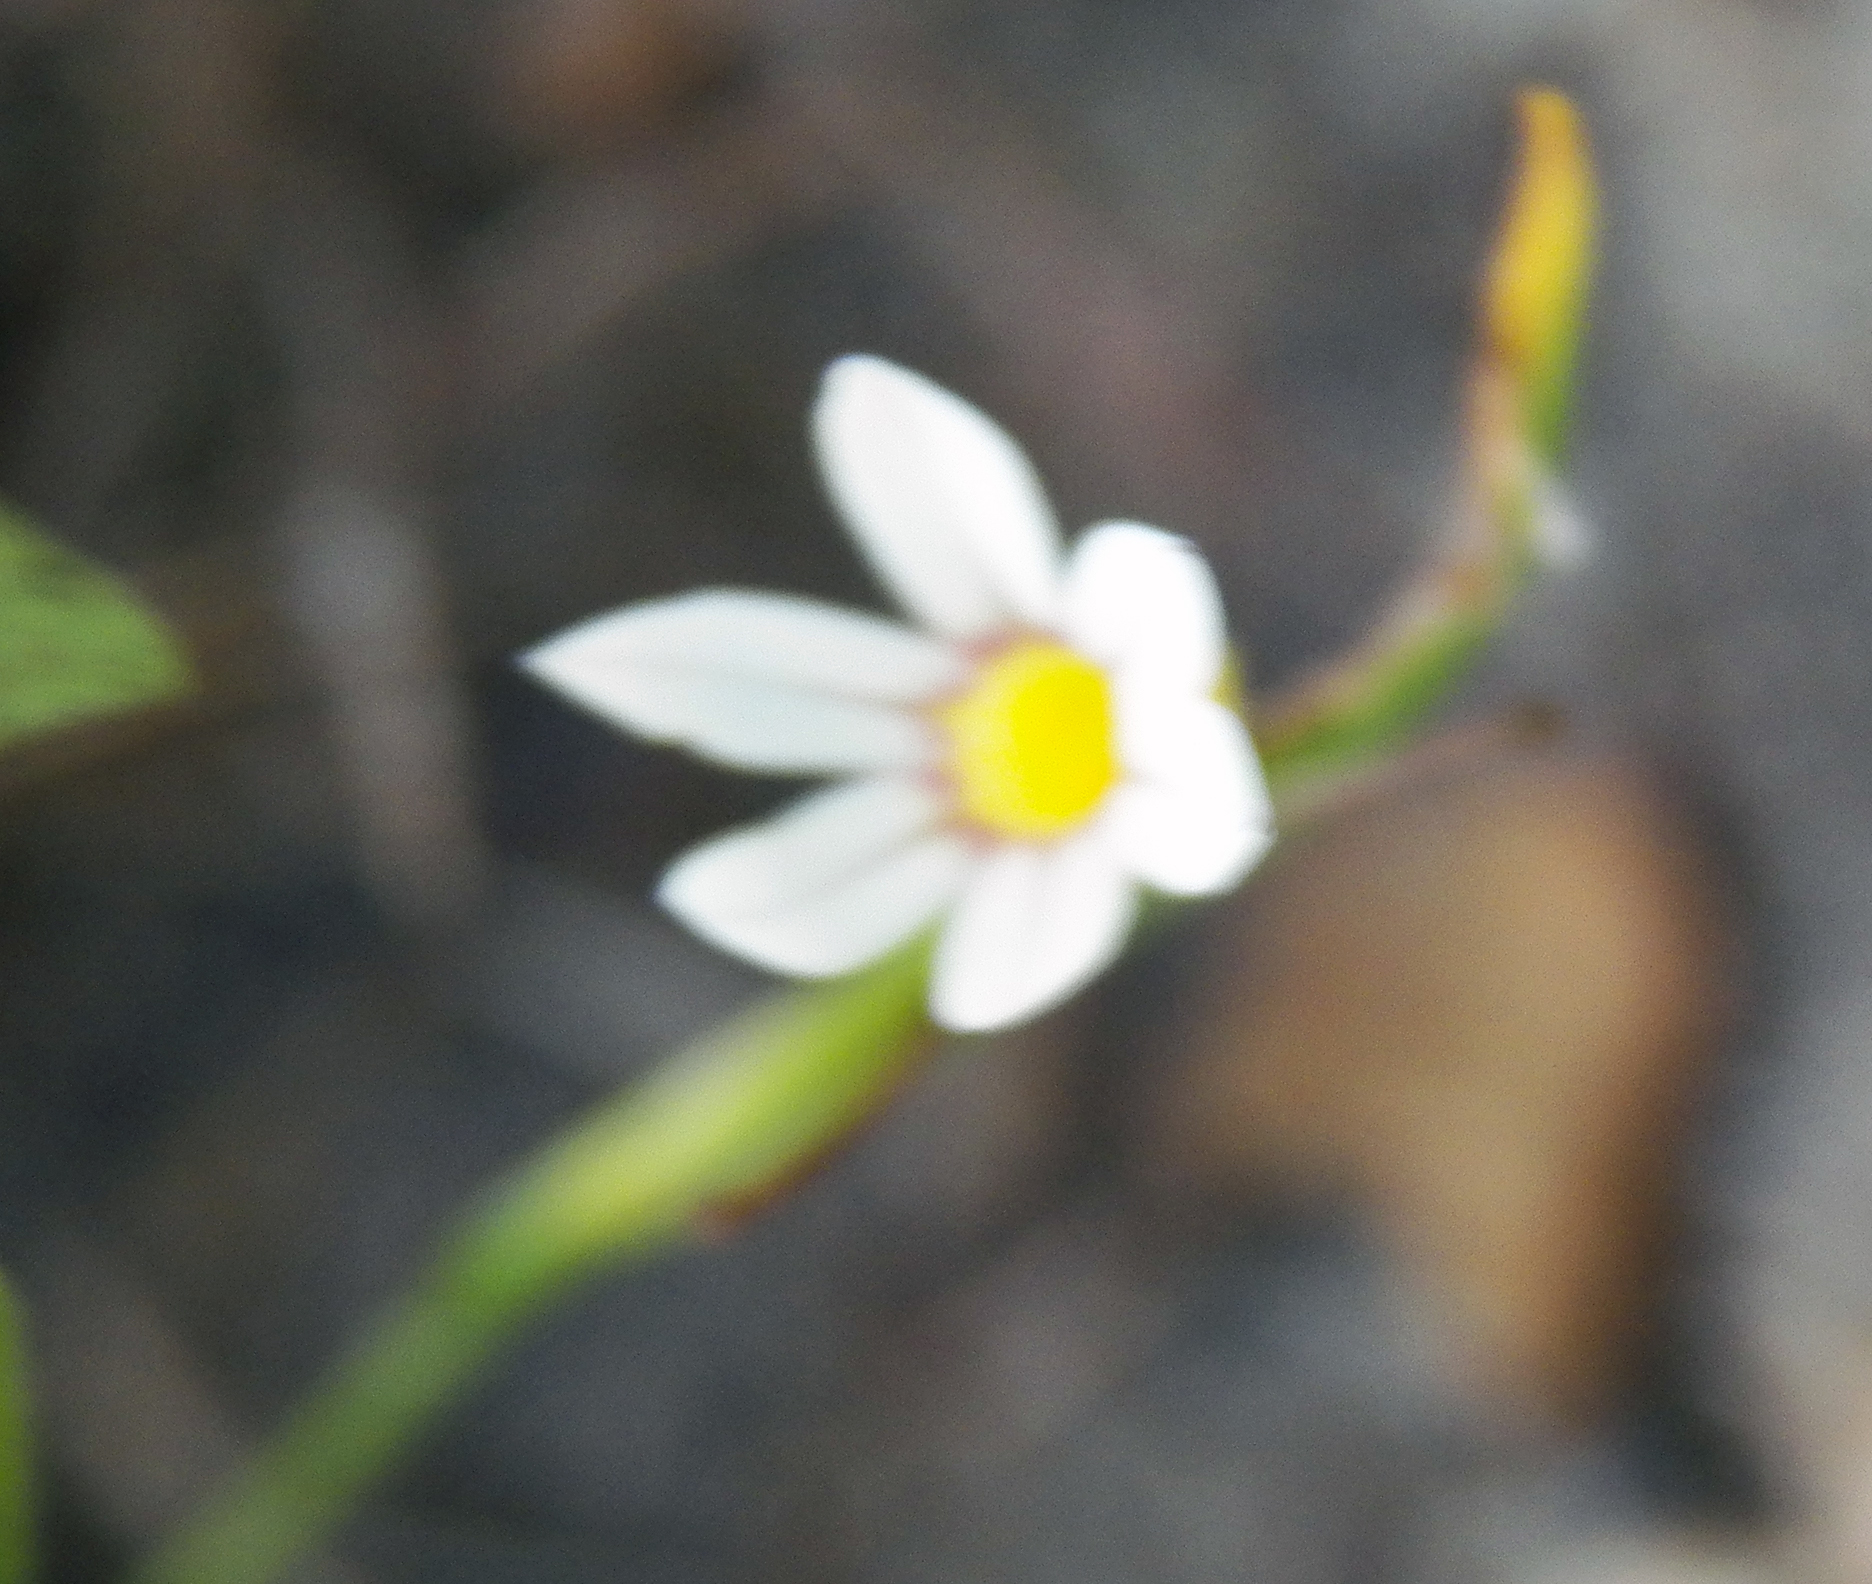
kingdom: Plantae
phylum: Tracheophyta
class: Liliopsida
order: Asparagales
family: Iridaceae
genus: Sisyrinchium
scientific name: Sisyrinchium micranthum
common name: Bermuda pigroot
